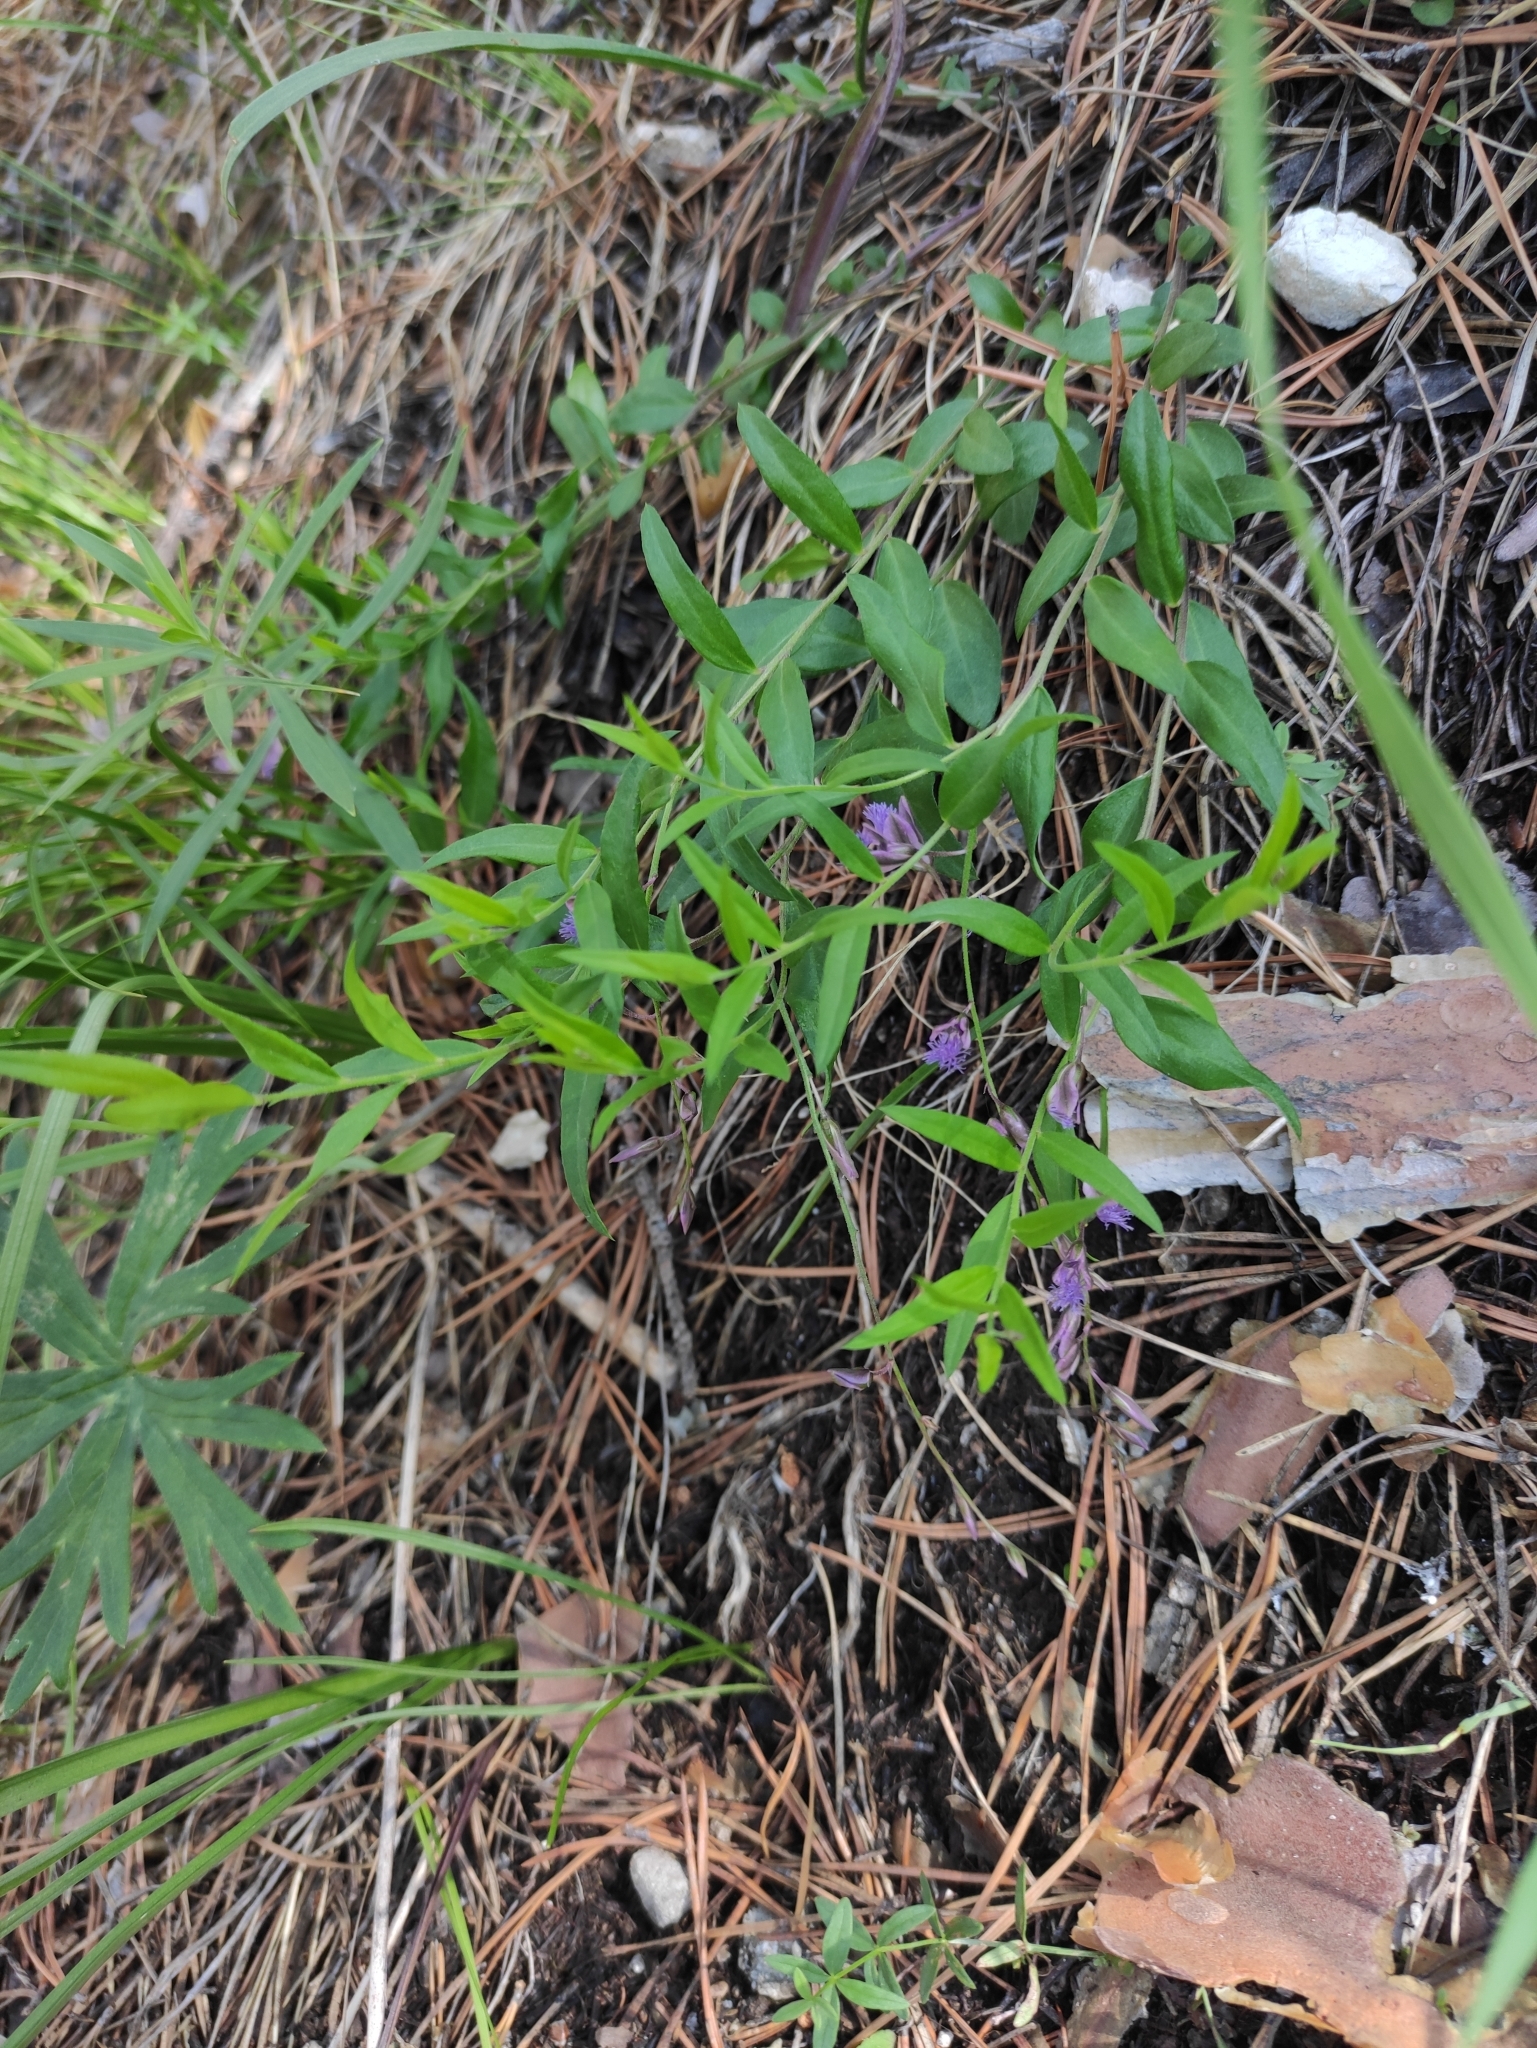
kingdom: Plantae
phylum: Tracheophyta
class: Magnoliopsida
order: Fabales
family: Polygalaceae
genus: Polygala
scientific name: Polygala sibirica
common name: Siberian polygala
